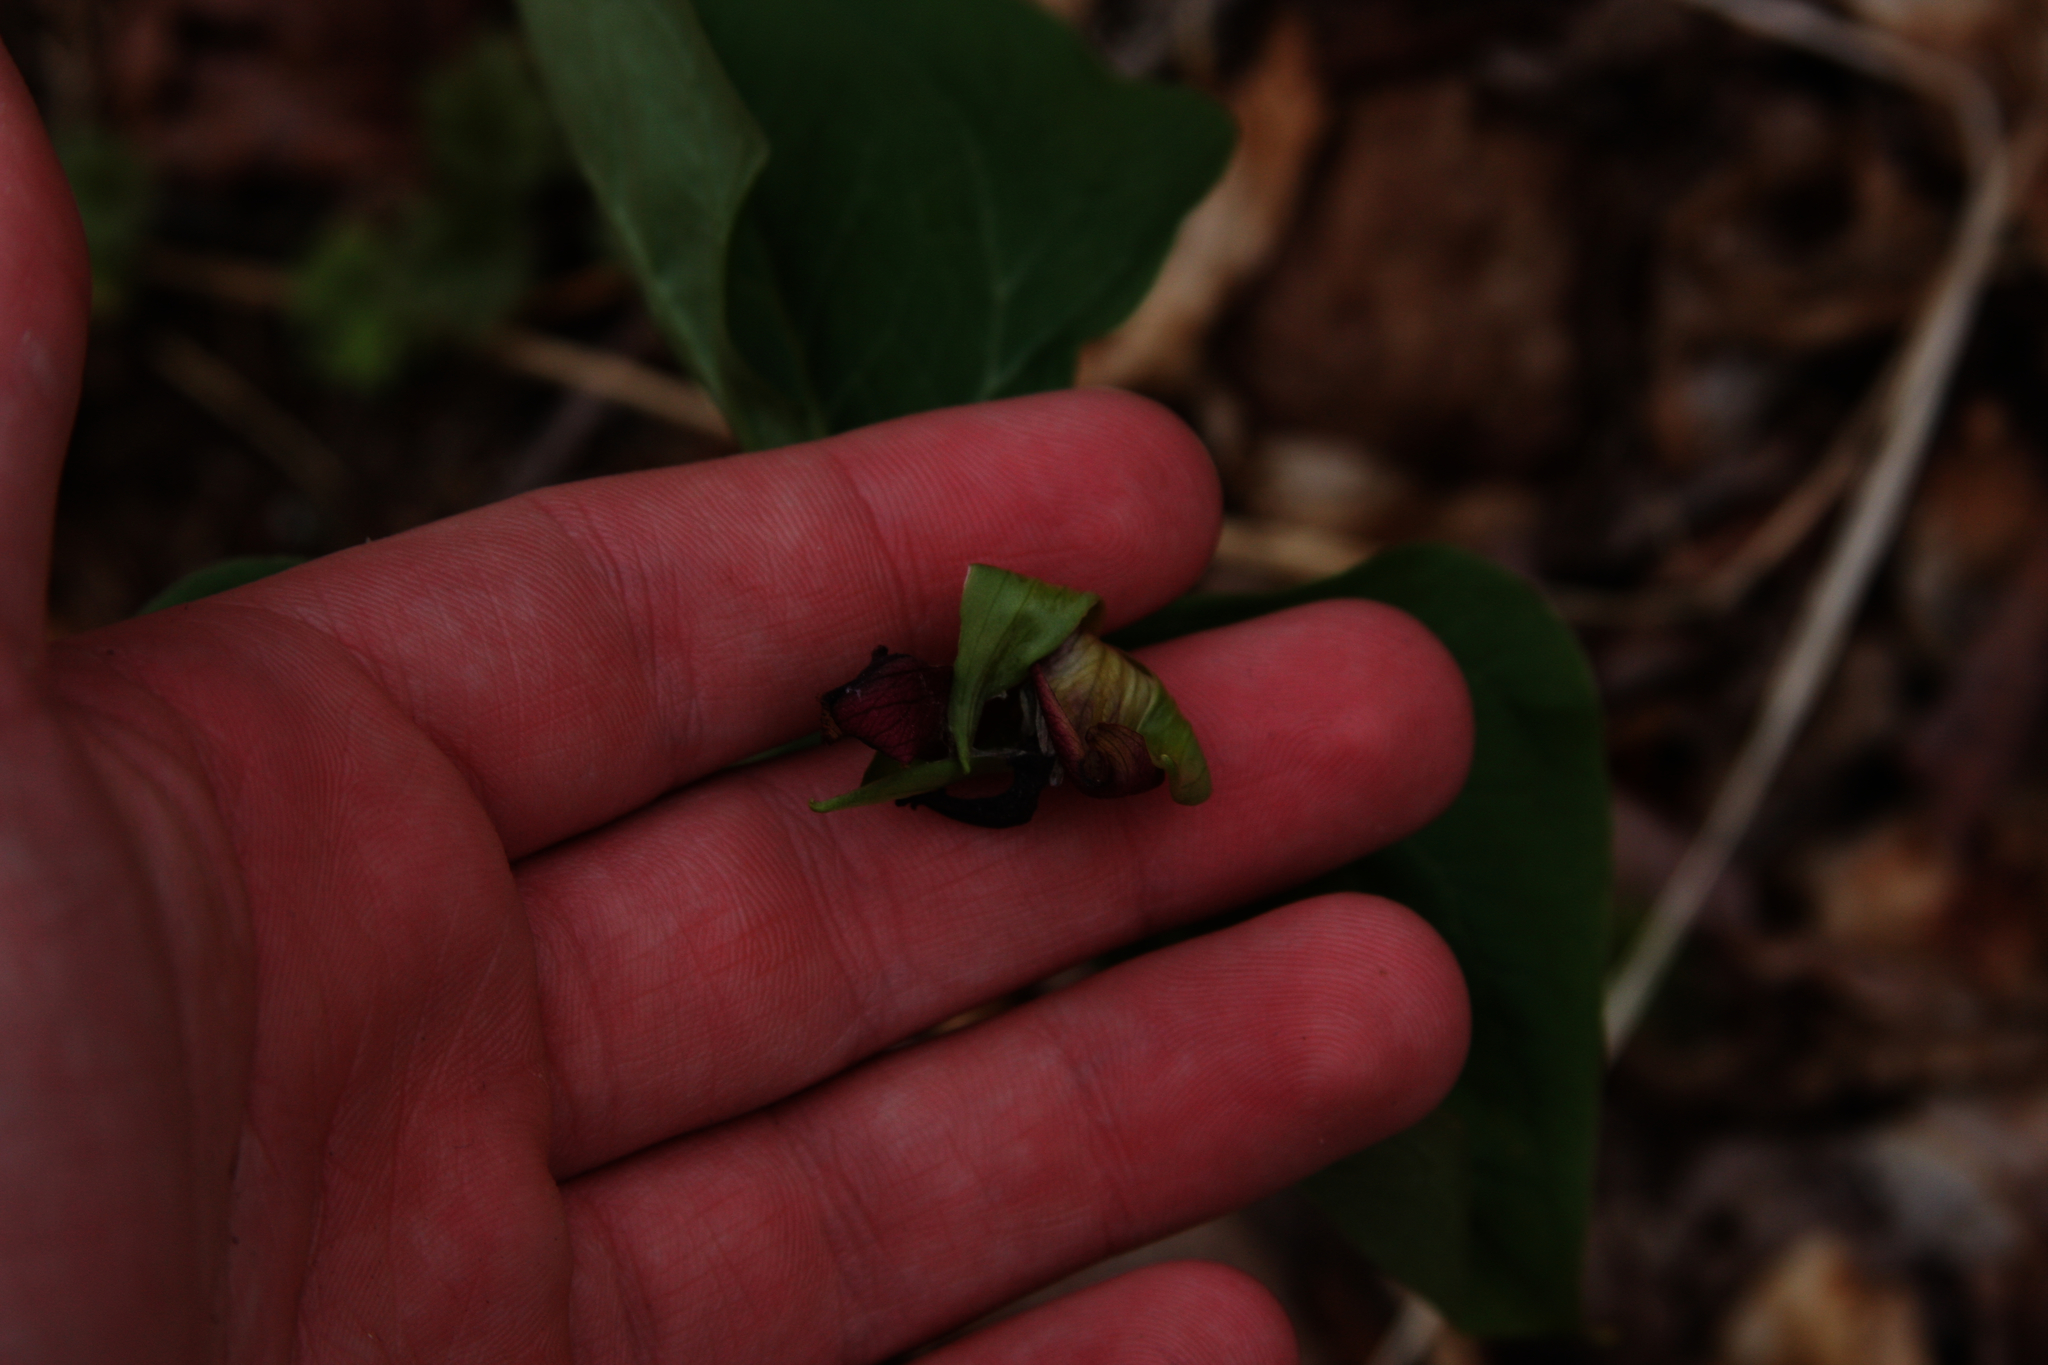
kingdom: Plantae
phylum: Tracheophyta
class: Liliopsida
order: Liliales
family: Melanthiaceae
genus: Trillium
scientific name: Trillium erectum
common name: Purple trillium
